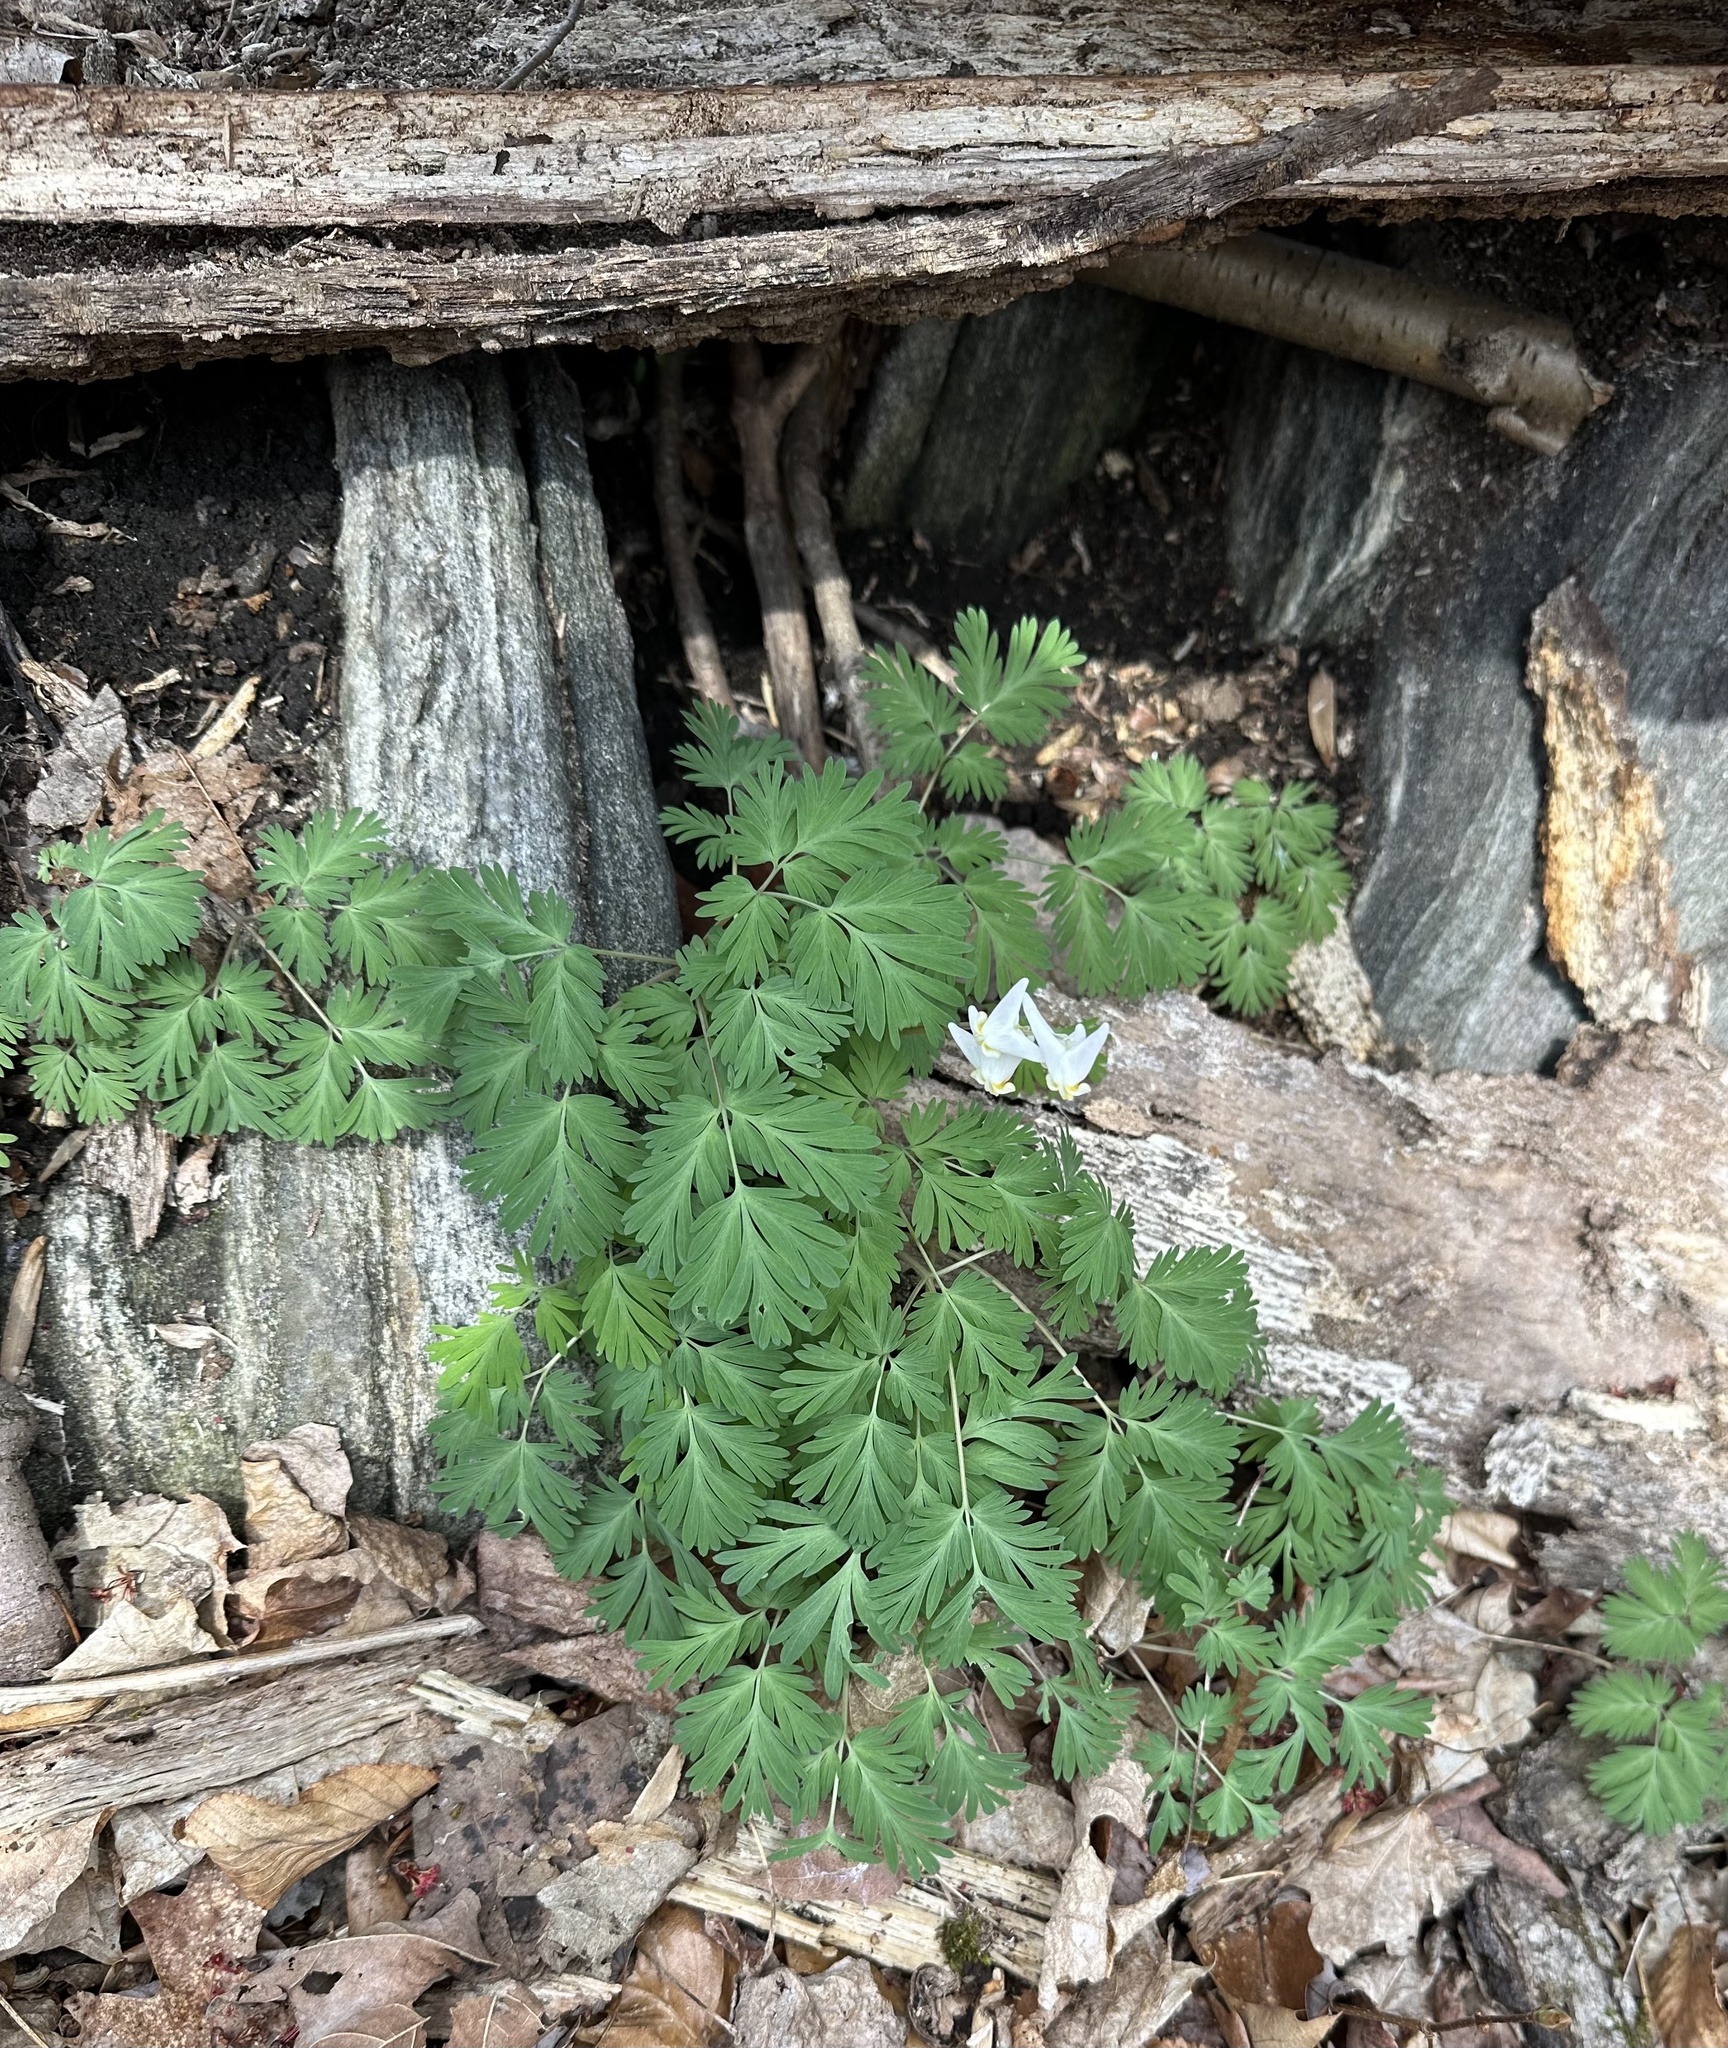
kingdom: Plantae
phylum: Tracheophyta
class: Magnoliopsida
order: Ranunculales
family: Papaveraceae
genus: Dicentra
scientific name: Dicentra cucullaria
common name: Dutchman's breeches
